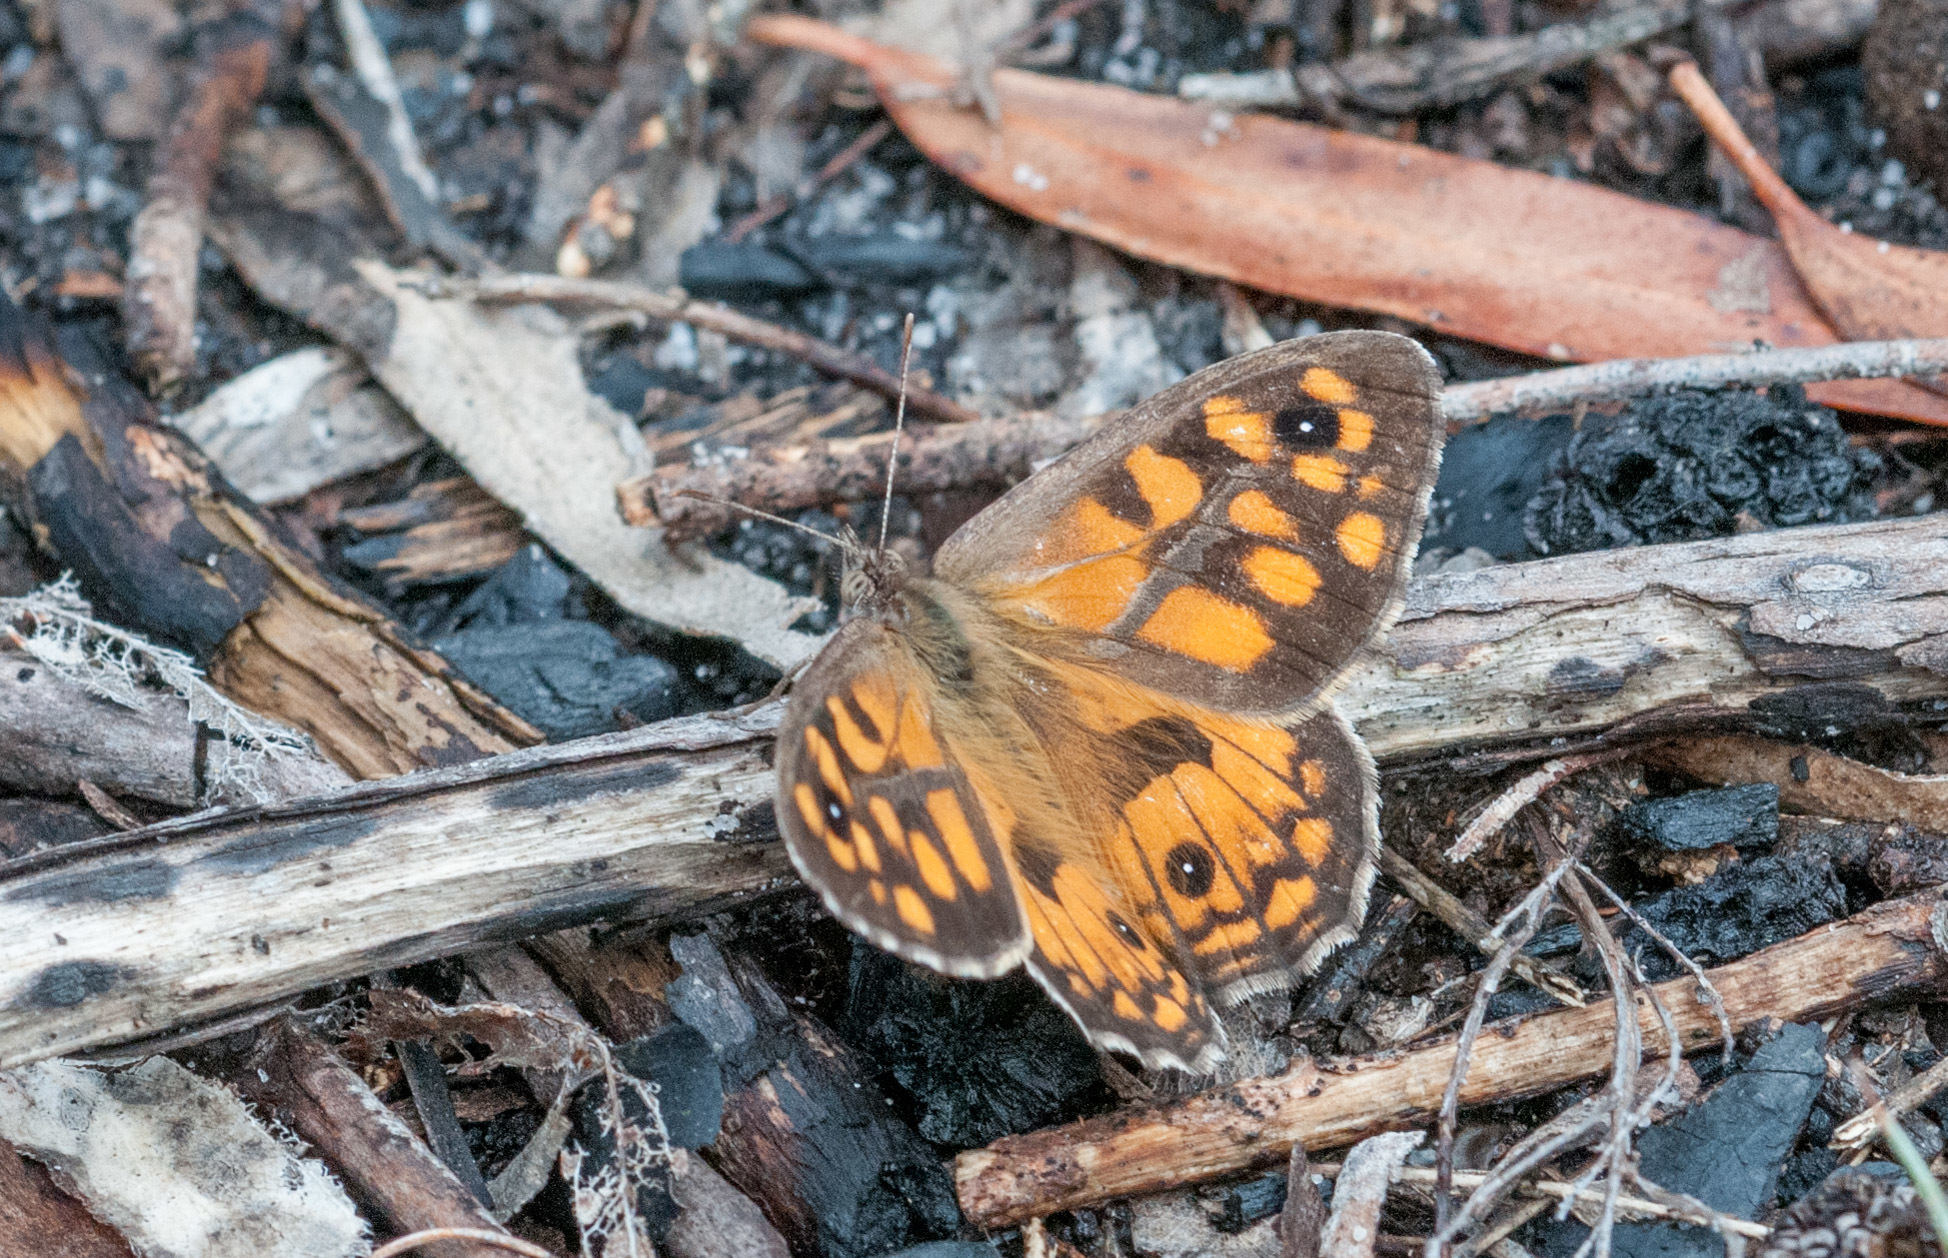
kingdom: Animalia
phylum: Arthropoda
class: Insecta
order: Lepidoptera
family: Nymphalidae
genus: Geitoneura
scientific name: Geitoneura klugii
